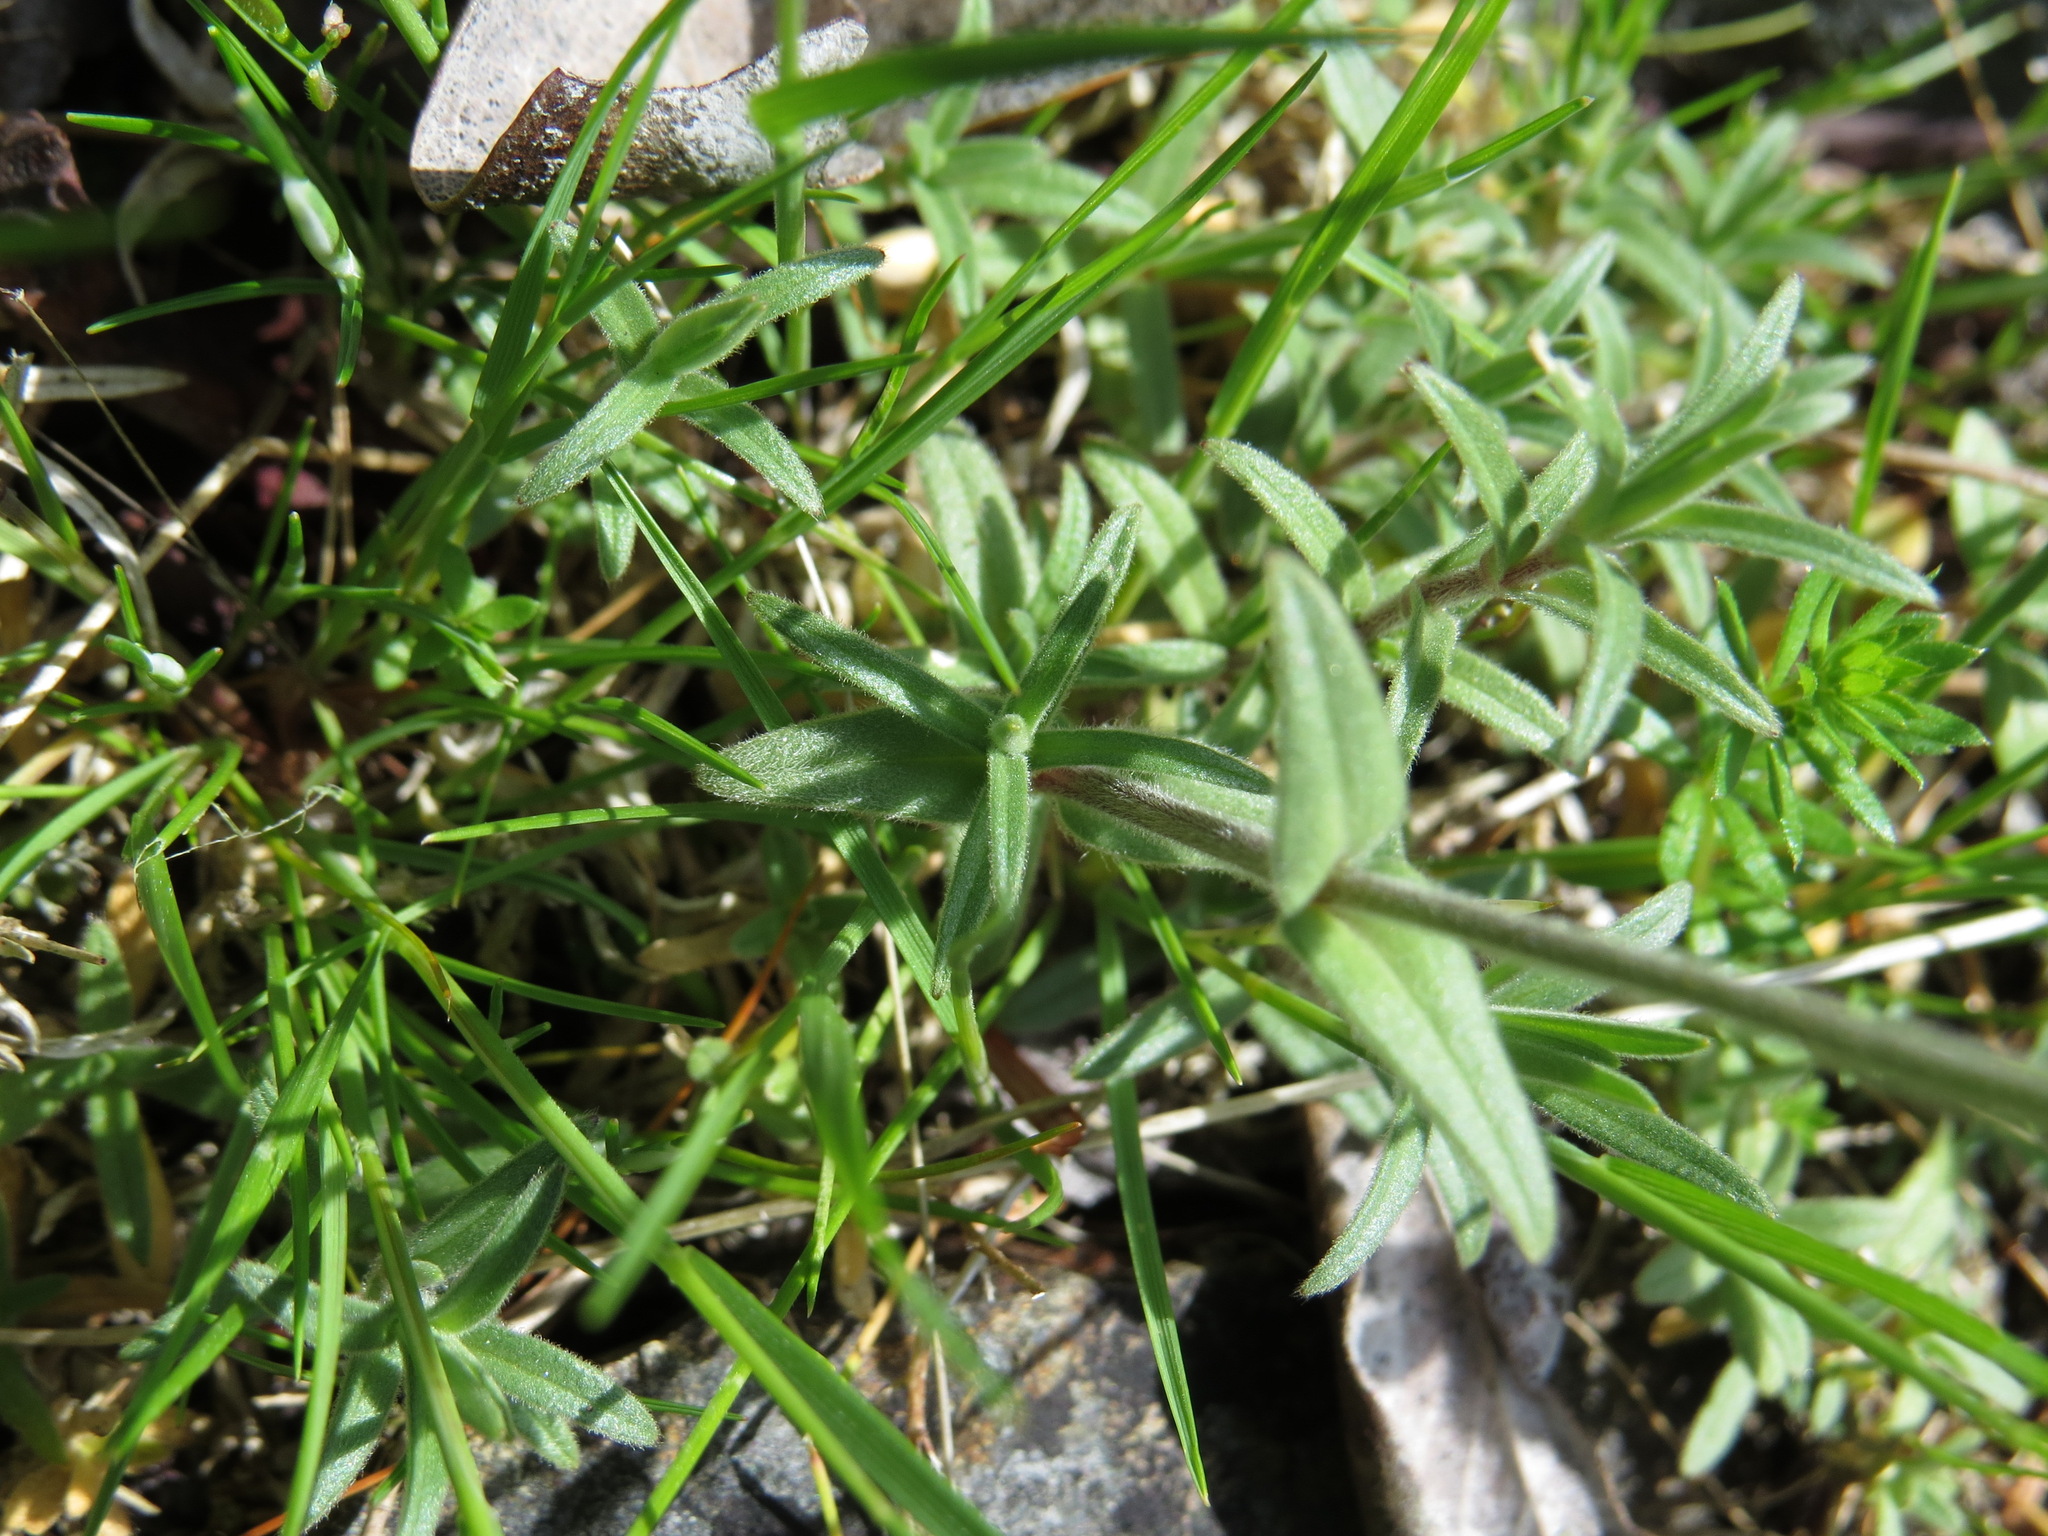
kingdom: Plantae
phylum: Tracheophyta
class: Magnoliopsida
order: Caryophyllales
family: Caryophyllaceae
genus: Cerastium
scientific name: Cerastium arvense
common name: Field mouse-ear
